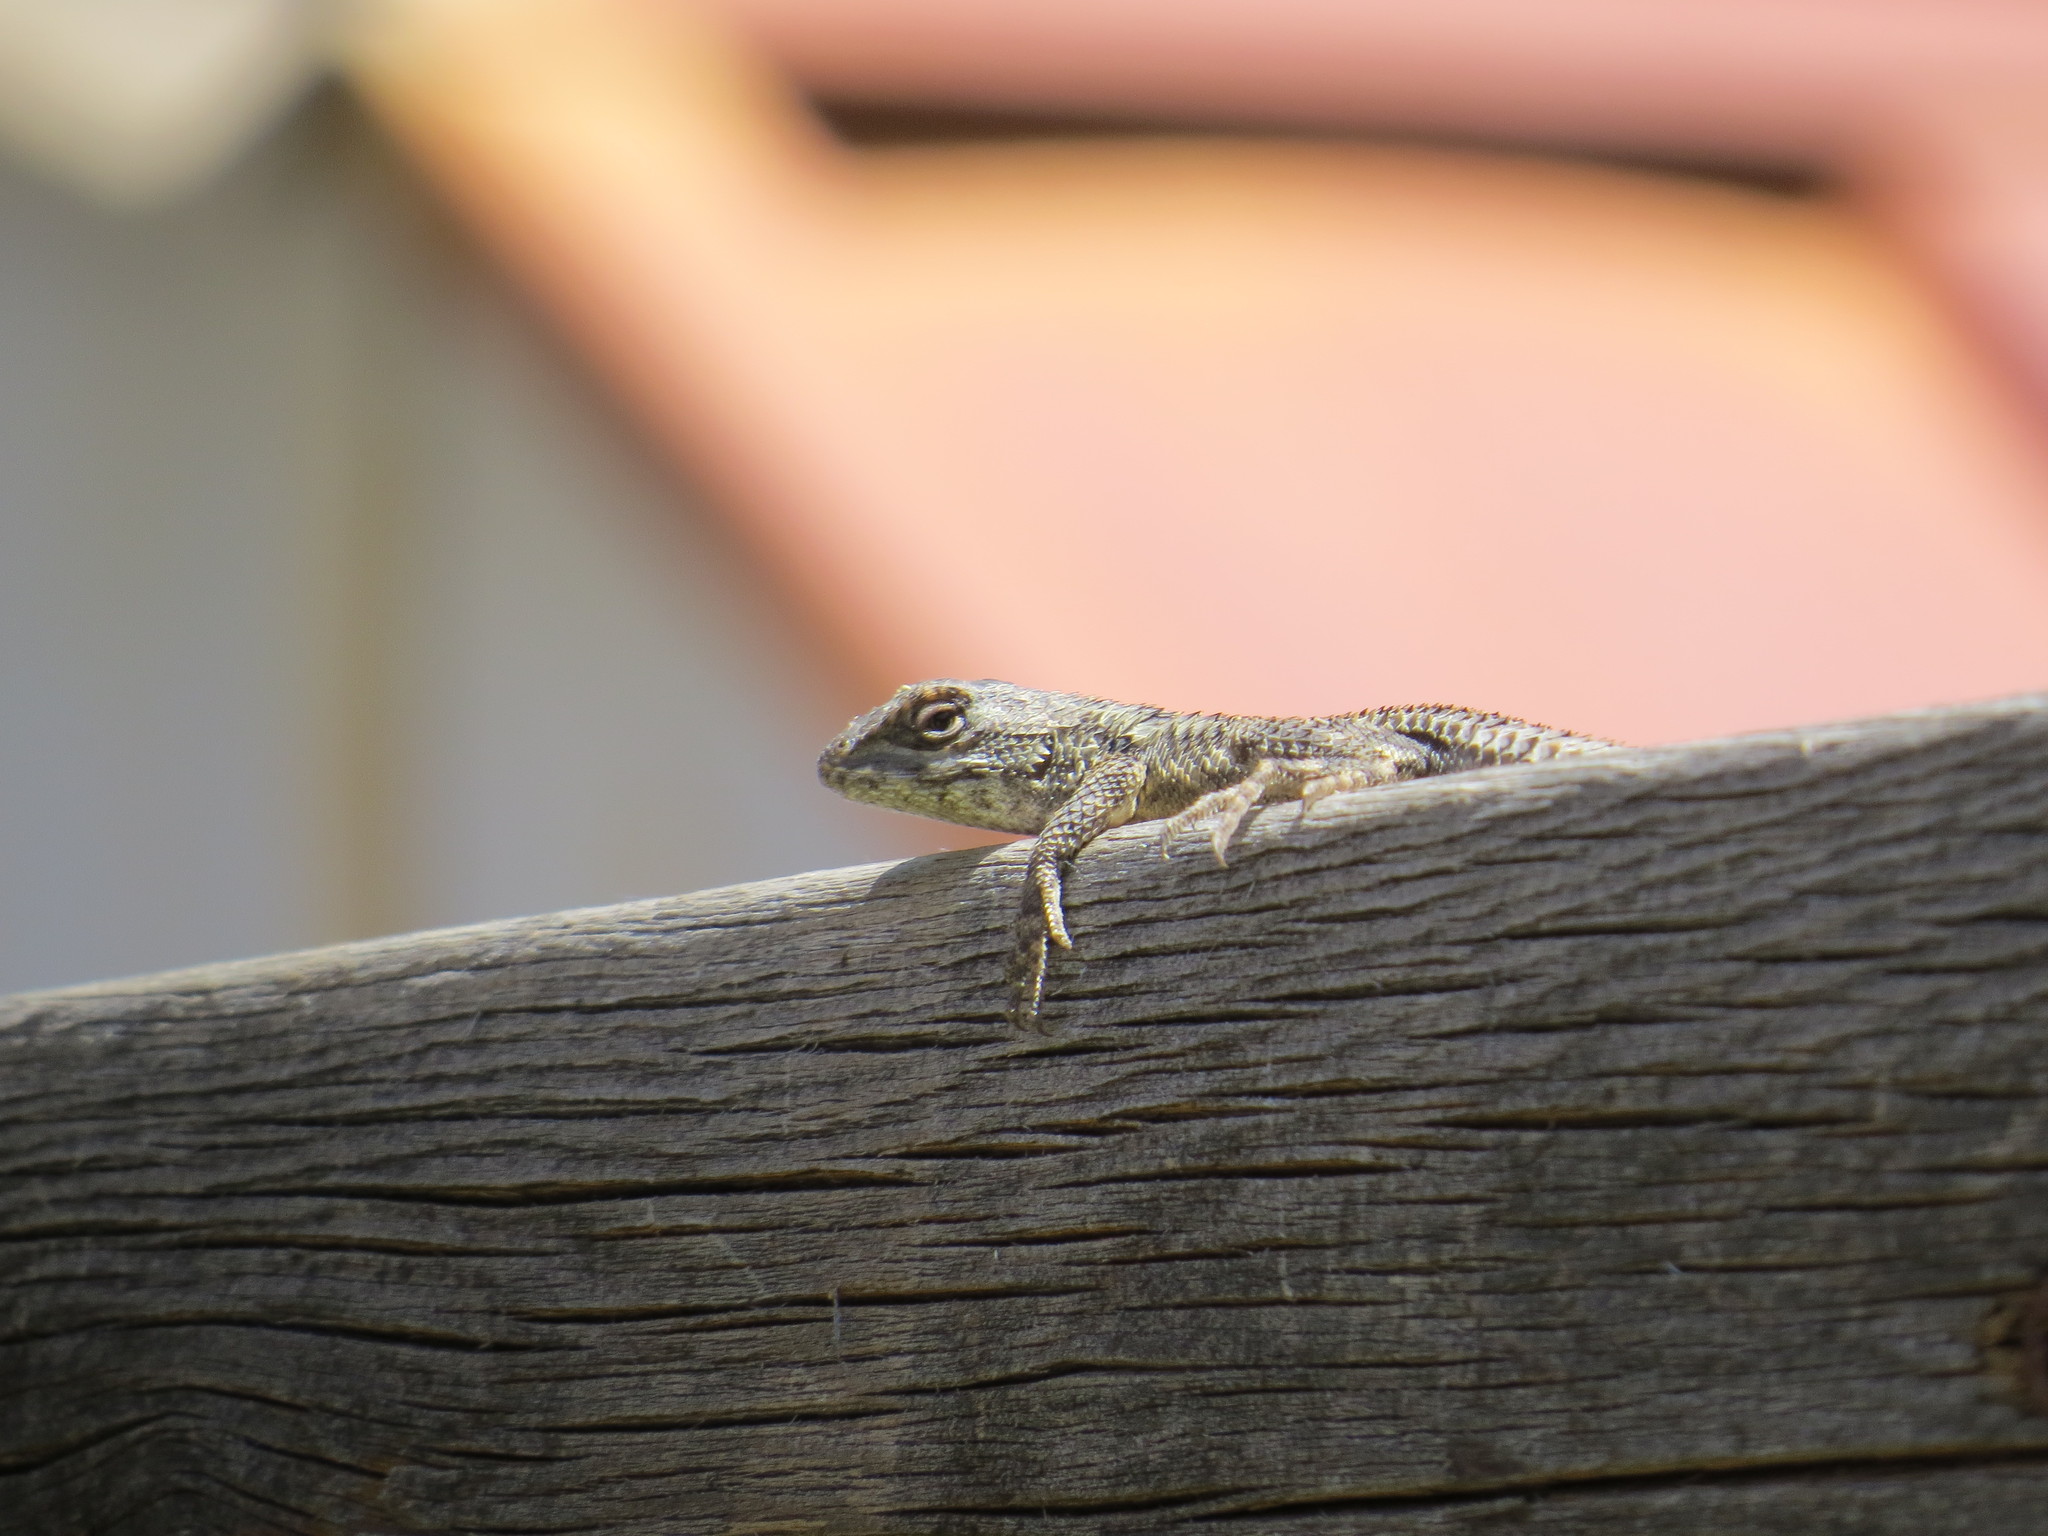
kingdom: Animalia
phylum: Chordata
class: Squamata
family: Phrynosomatidae
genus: Sceloporus
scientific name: Sceloporus olivaceus
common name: Texas spiny lizard
